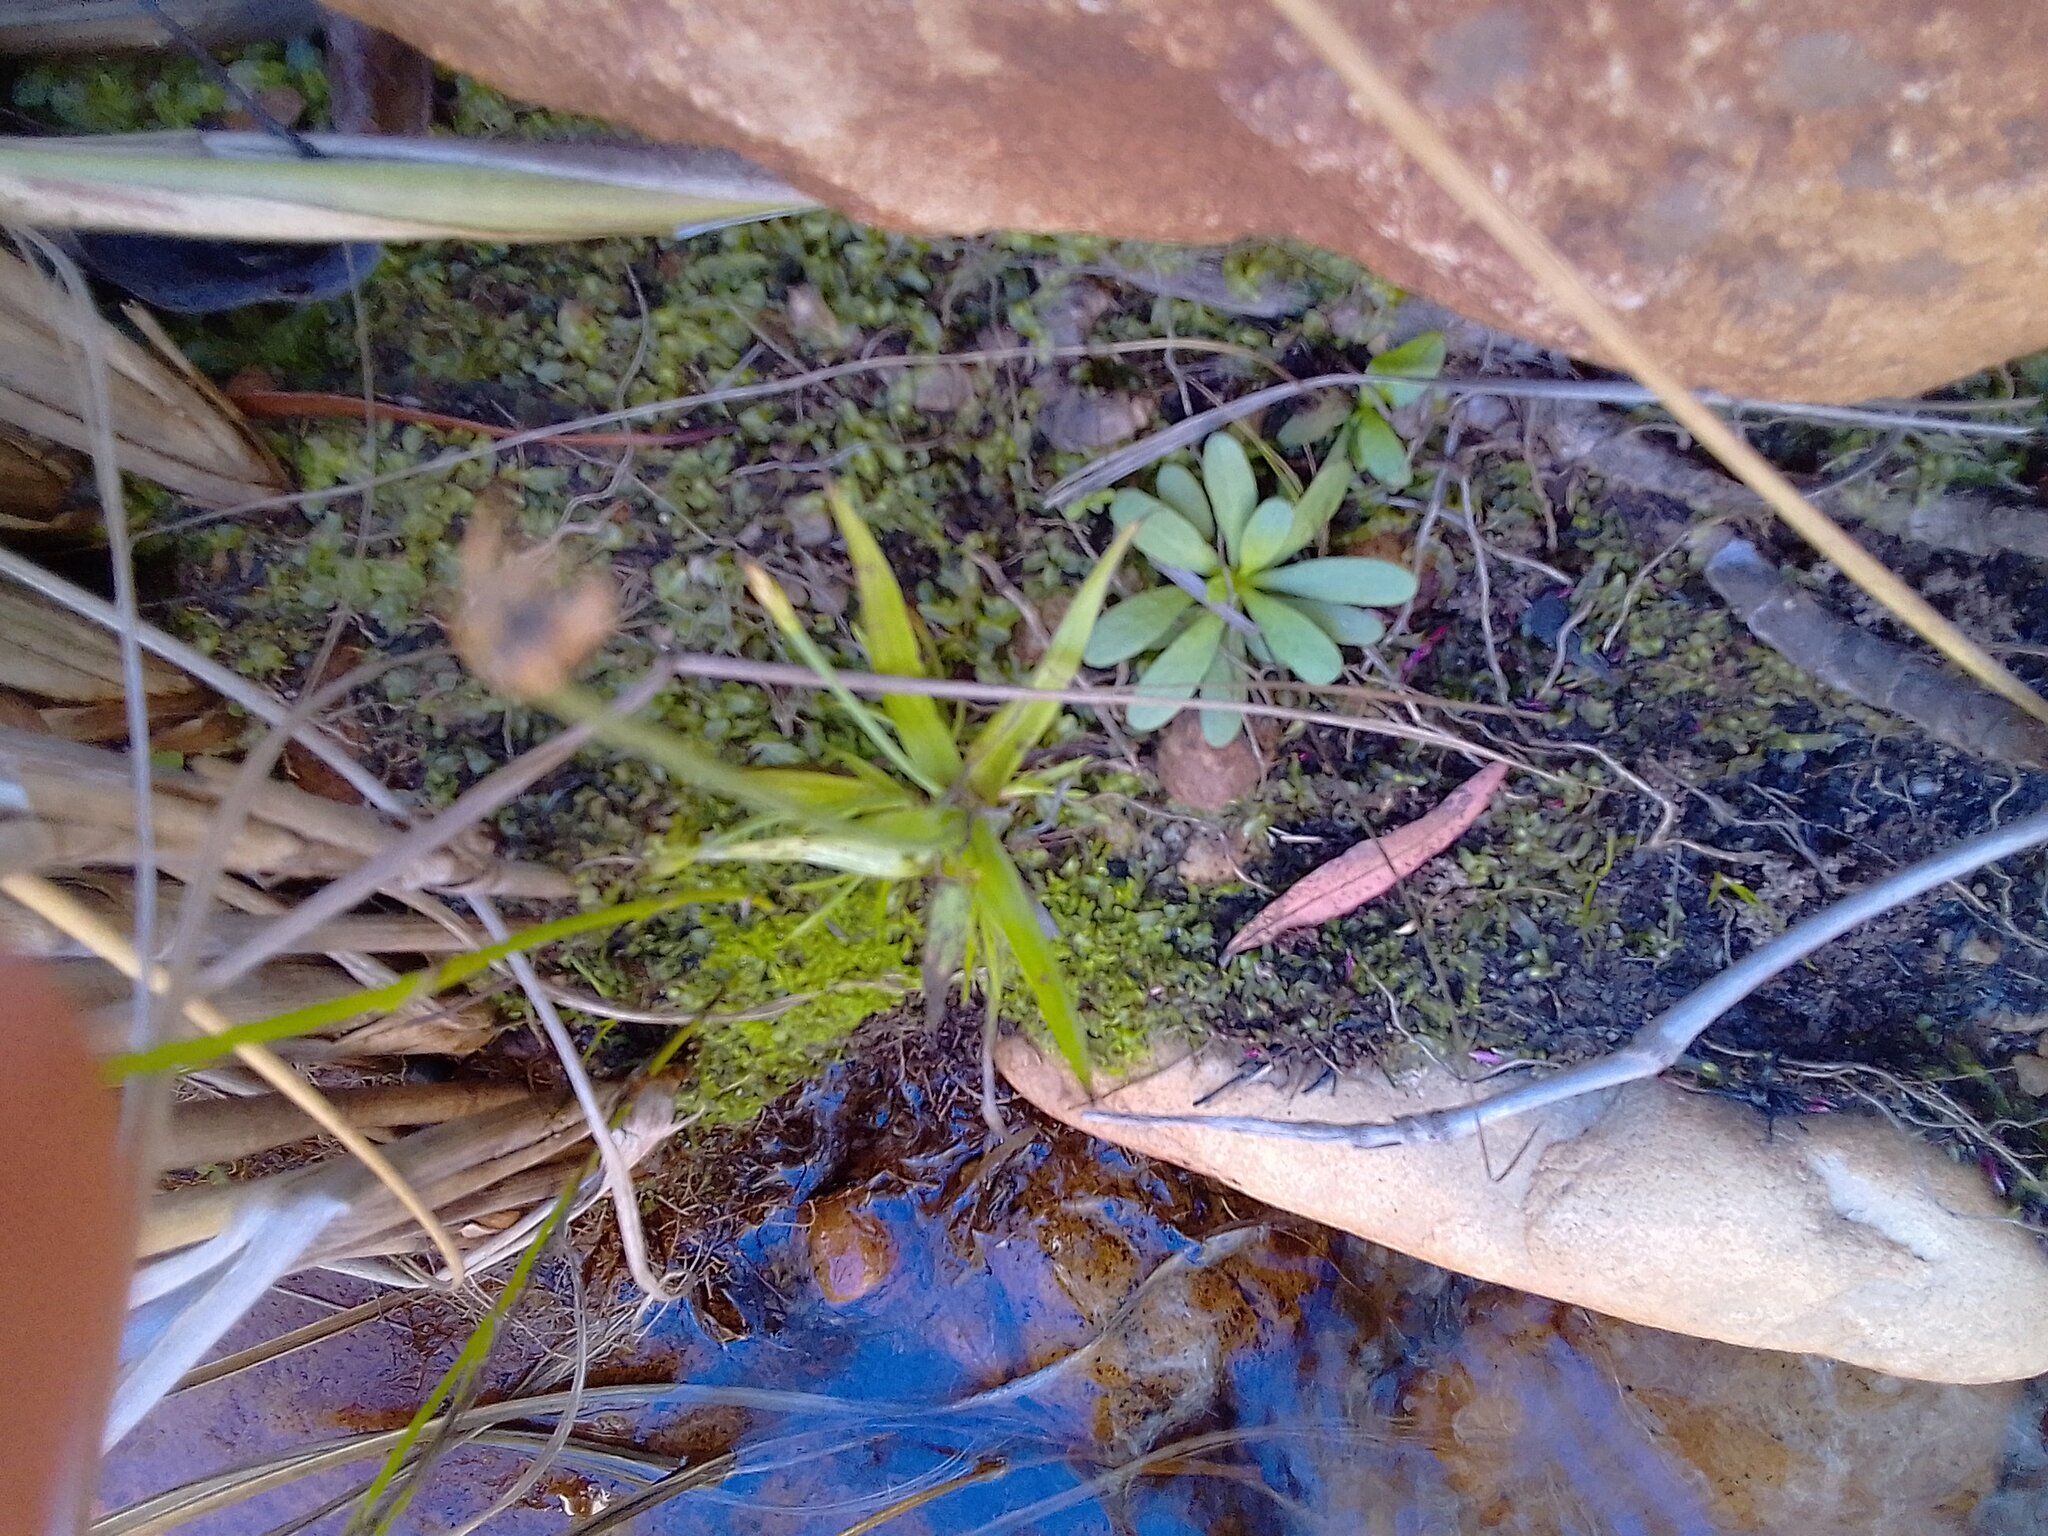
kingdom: Plantae
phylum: Tracheophyta
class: Magnoliopsida
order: Asterales
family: Campanulaceae
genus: Wimmerella
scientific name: Wimmerella arabidea
